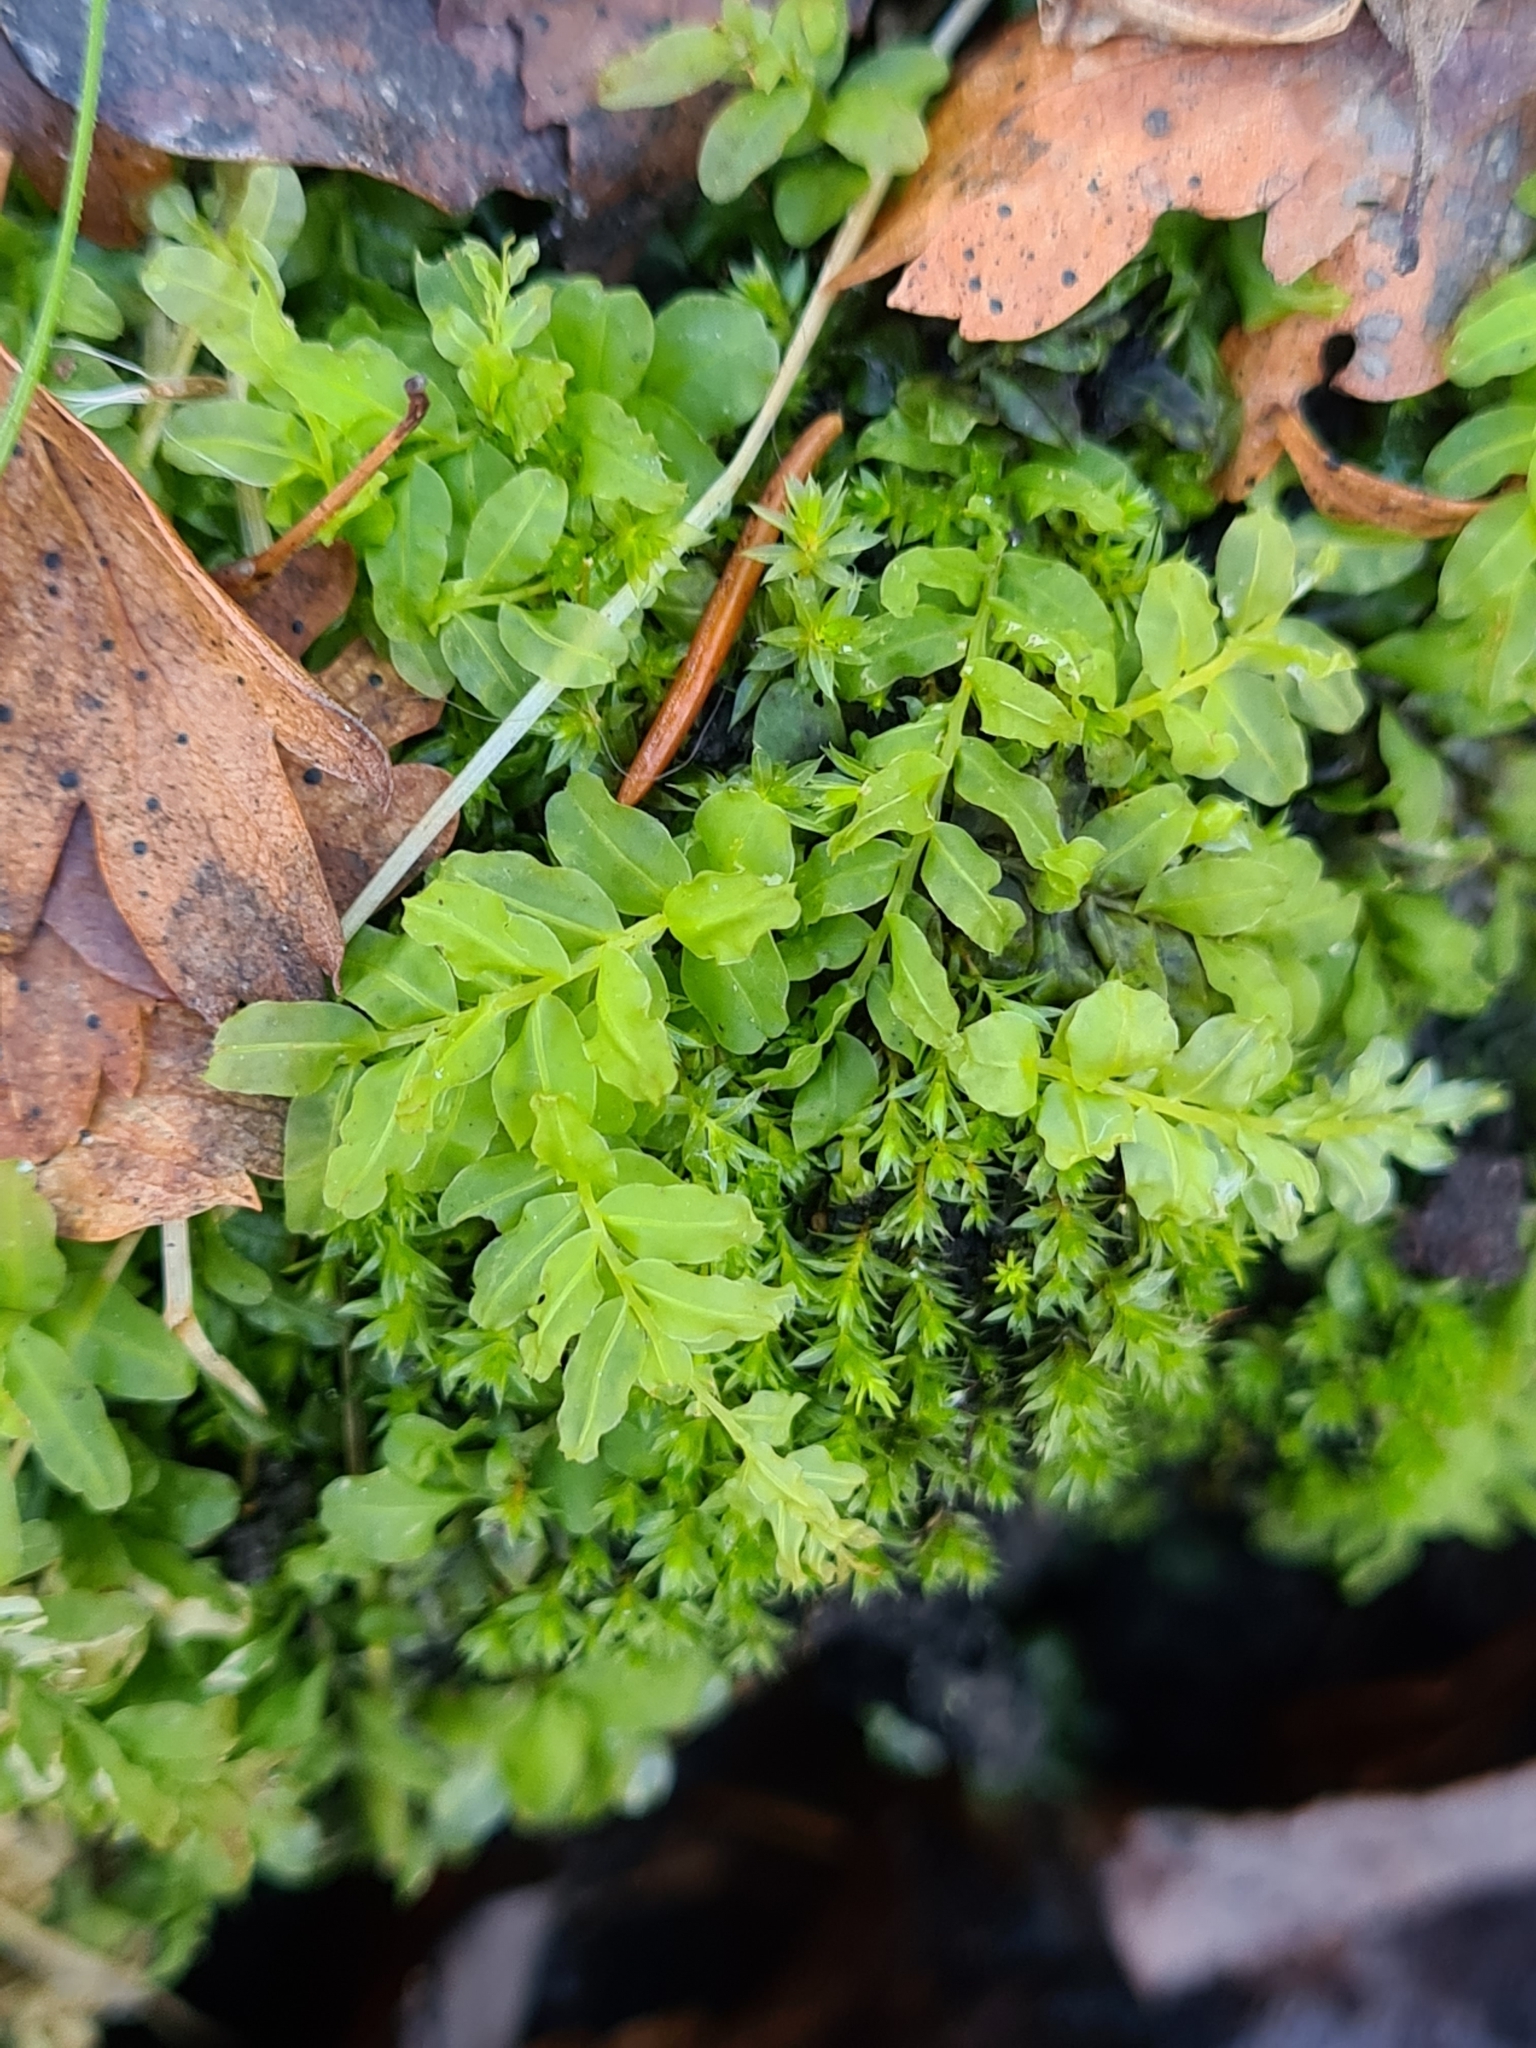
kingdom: Plantae
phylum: Bryophyta
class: Bryopsida
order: Bryales
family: Mniaceae
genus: Plagiomnium
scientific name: Plagiomnium undulatum
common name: Hart's-tongue thyme-moss
